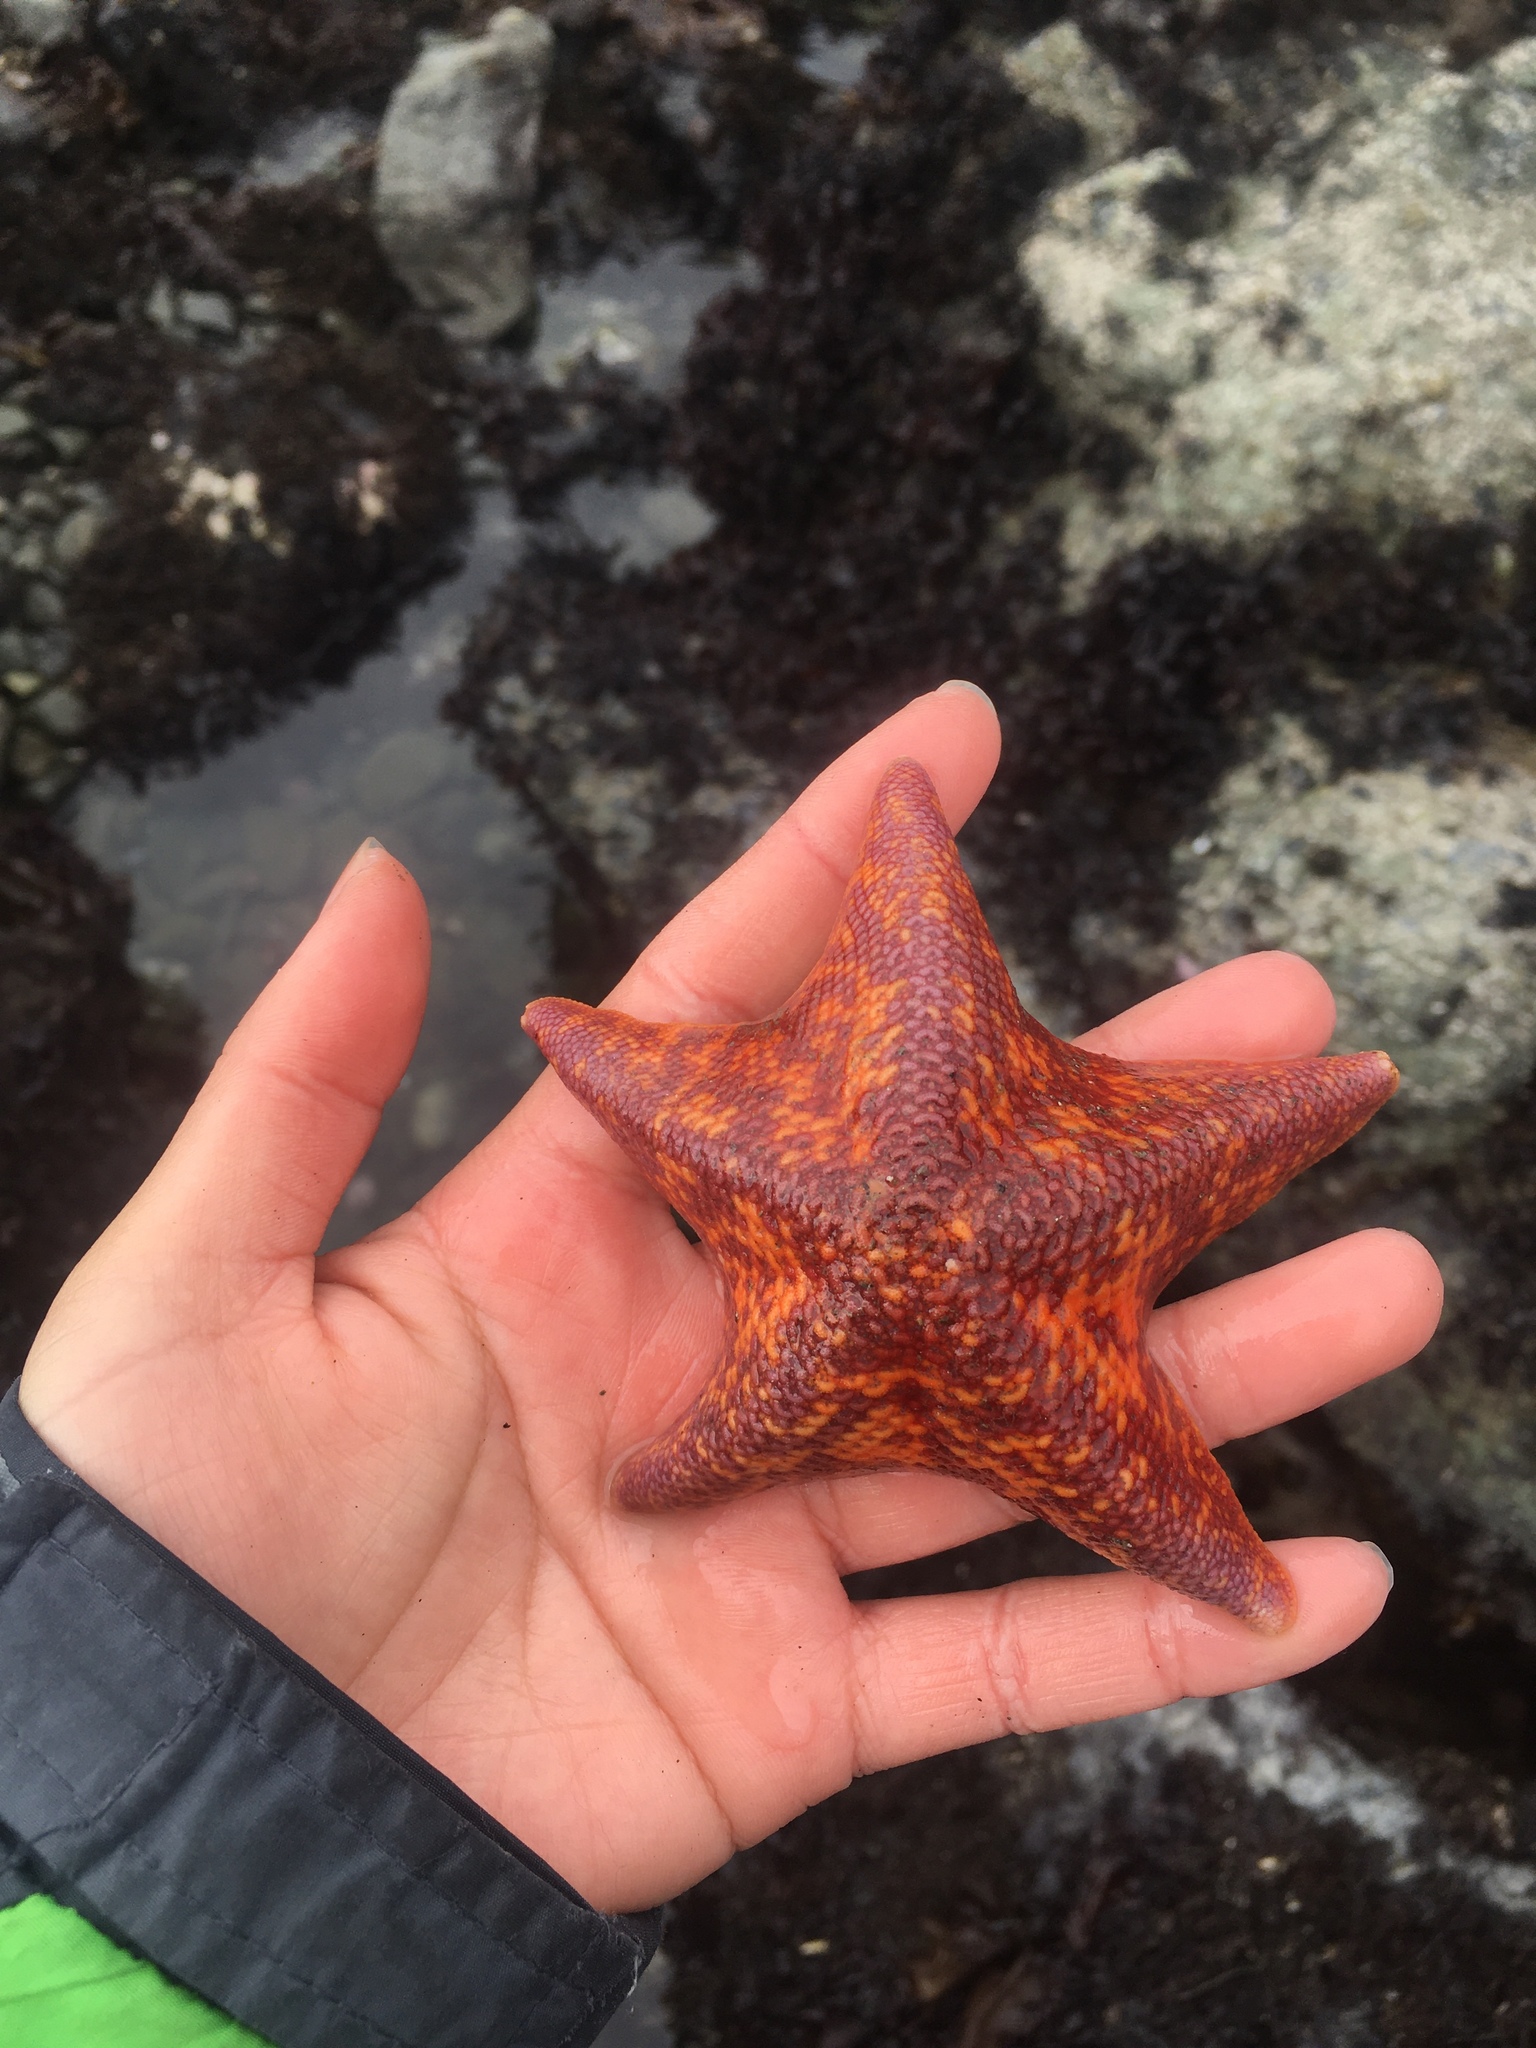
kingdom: Animalia
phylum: Echinodermata
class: Asteroidea
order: Valvatida
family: Asterinidae
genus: Patiria
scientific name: Patiria miniata
